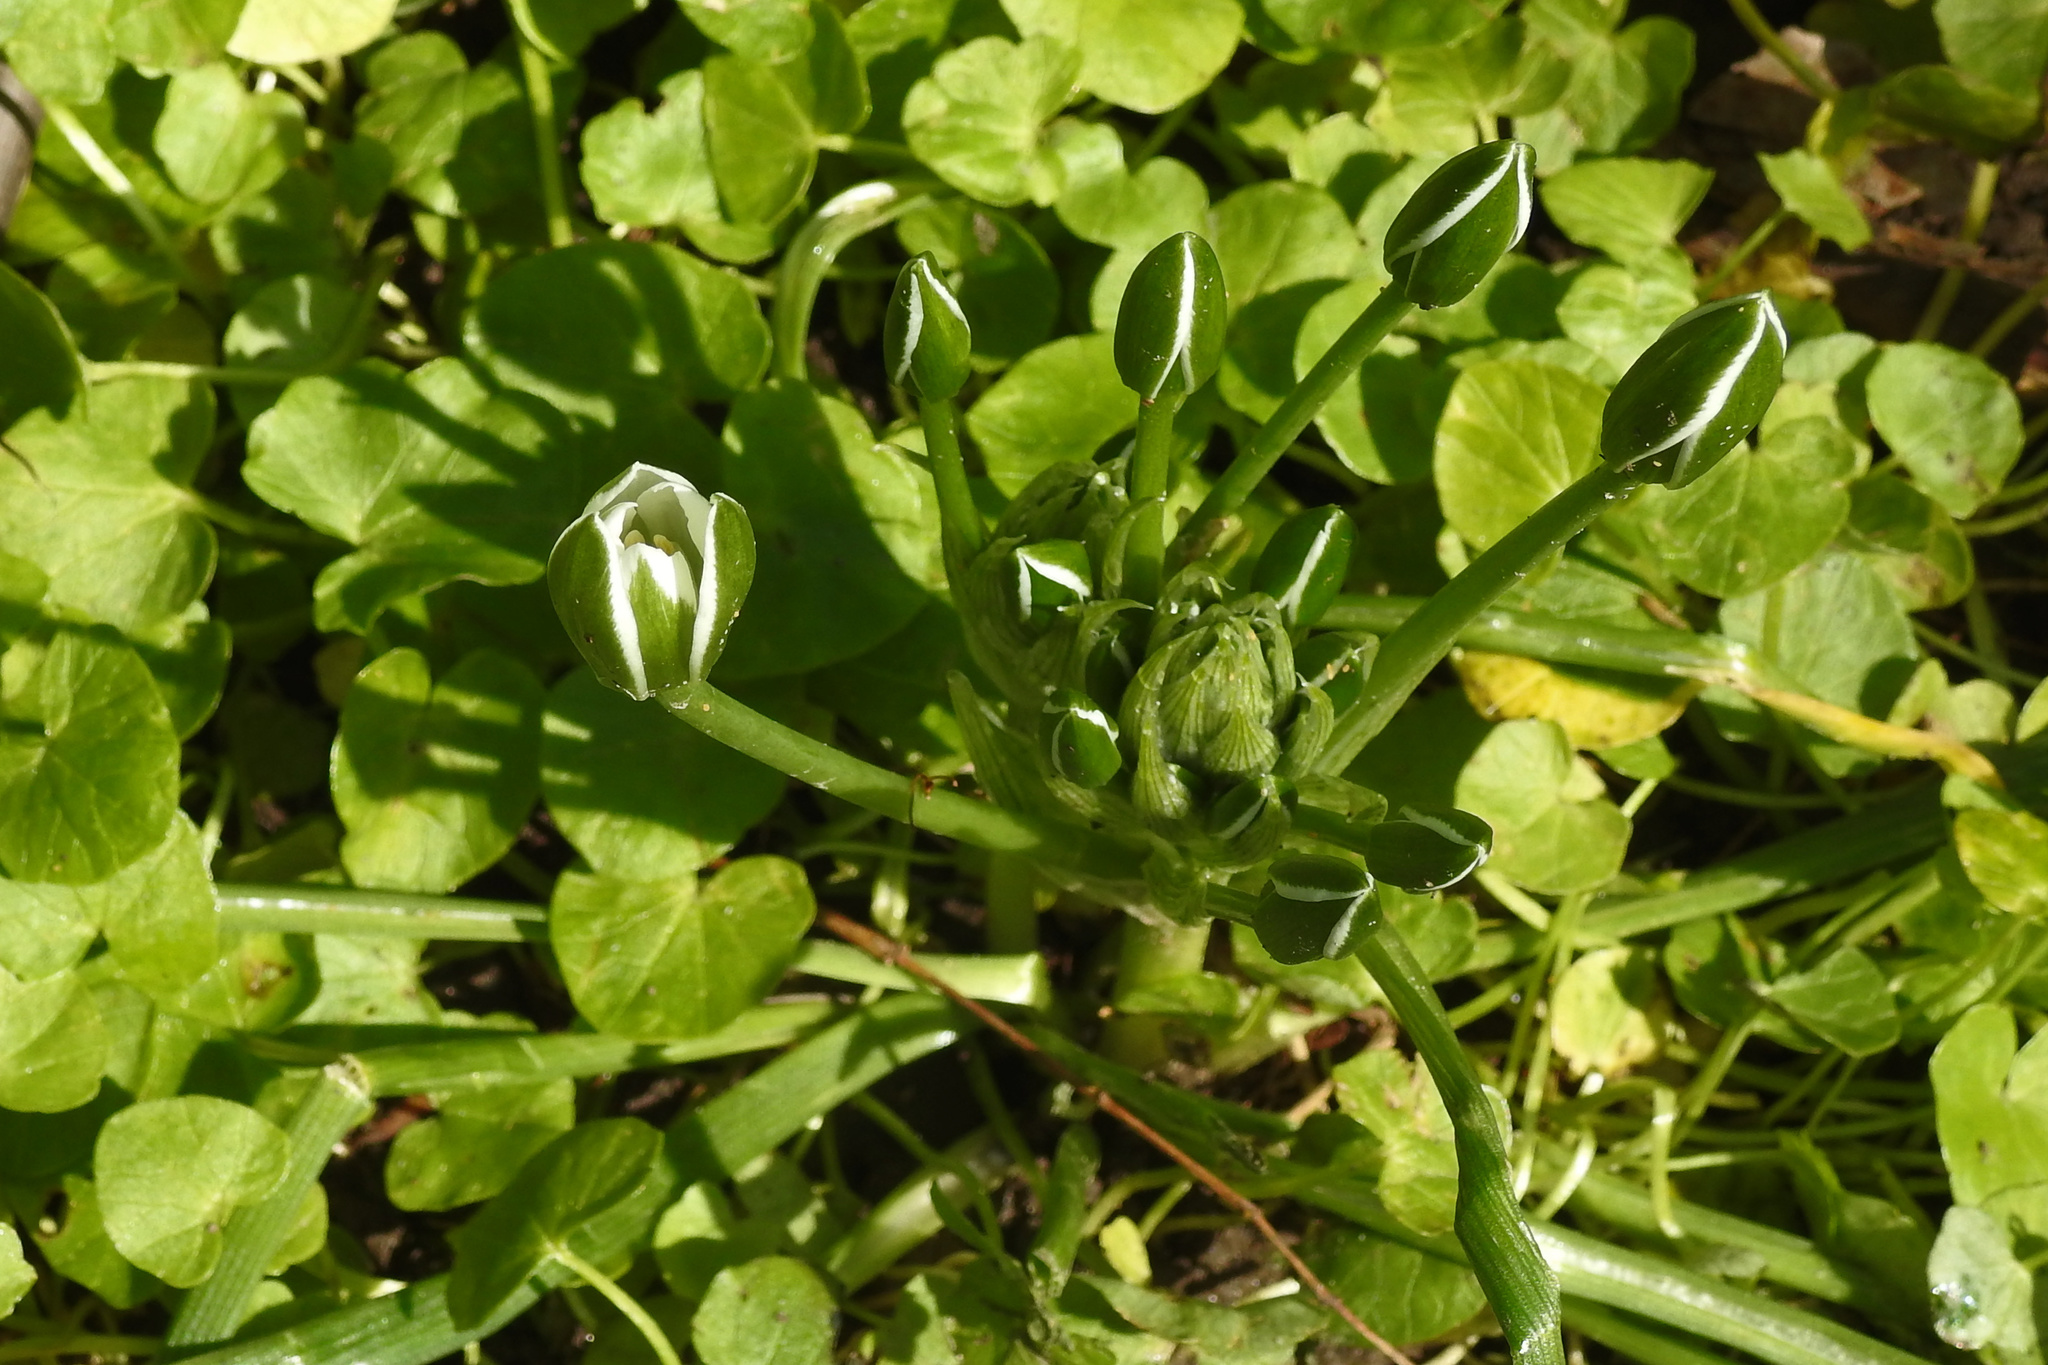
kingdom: Plantae
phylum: Tracheophyta
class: Liliopsida
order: Asparagales
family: Asparagaceae
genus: Ornithogalum
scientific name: Ornithogalum umbellatum
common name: Garden star-of-bethlehem
